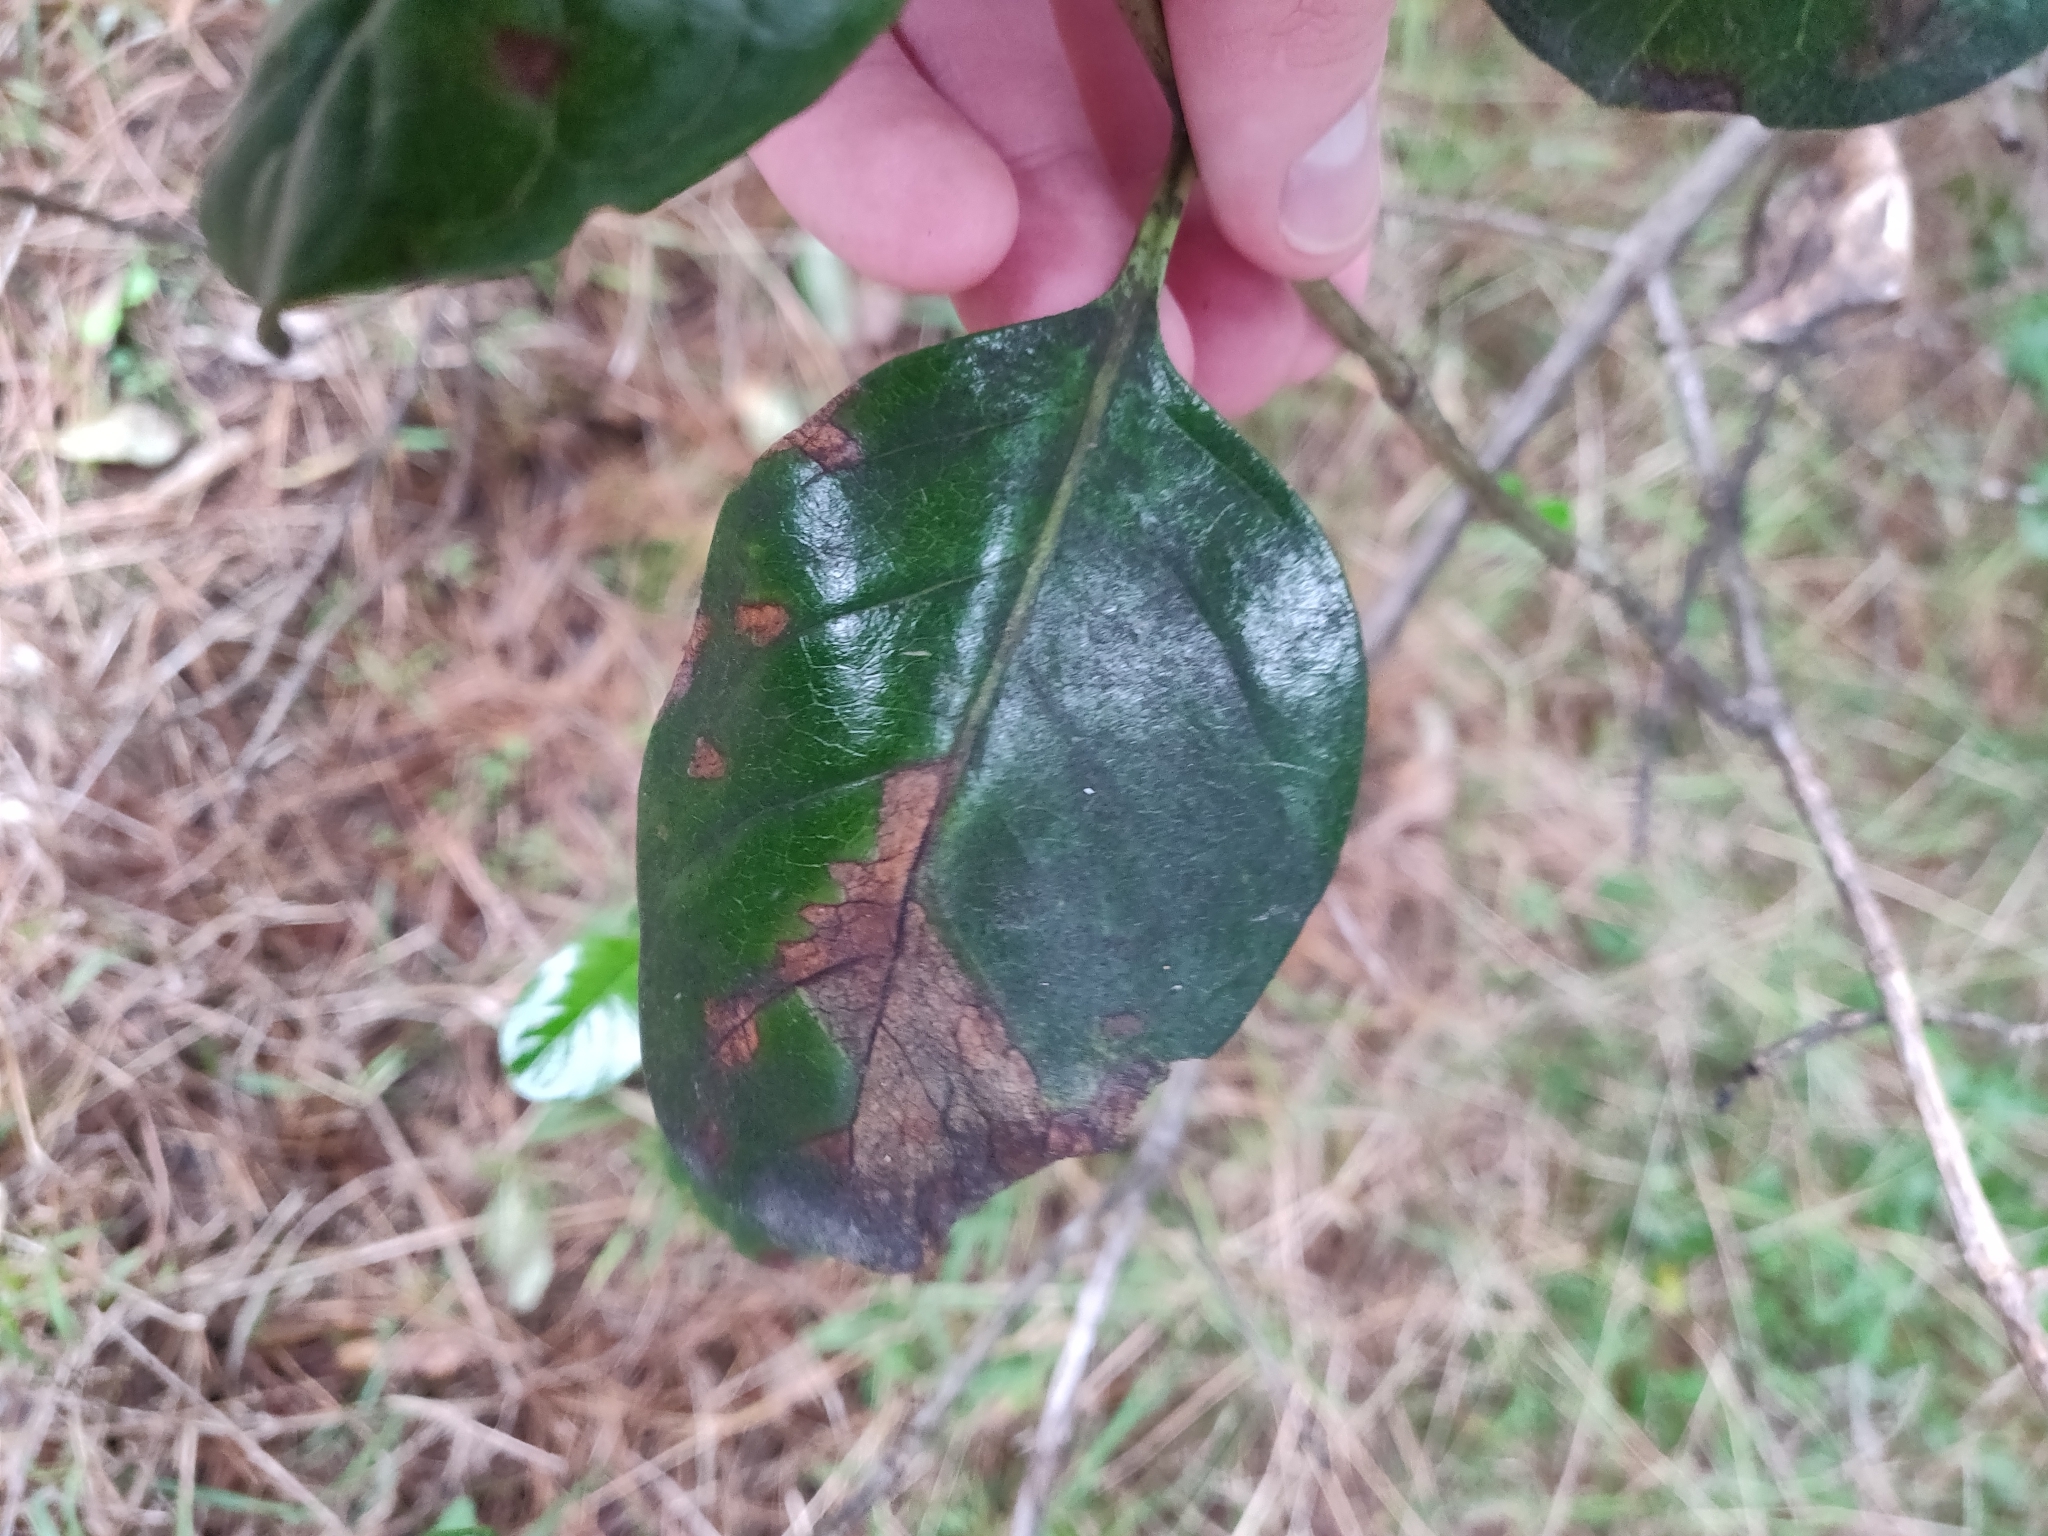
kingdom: Plantae
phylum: Tracheophyta
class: Magnoliopsida
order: Gentianales
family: Rubiaceae
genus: Coprosma
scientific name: Coprosma repens
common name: Tree bedstraw
